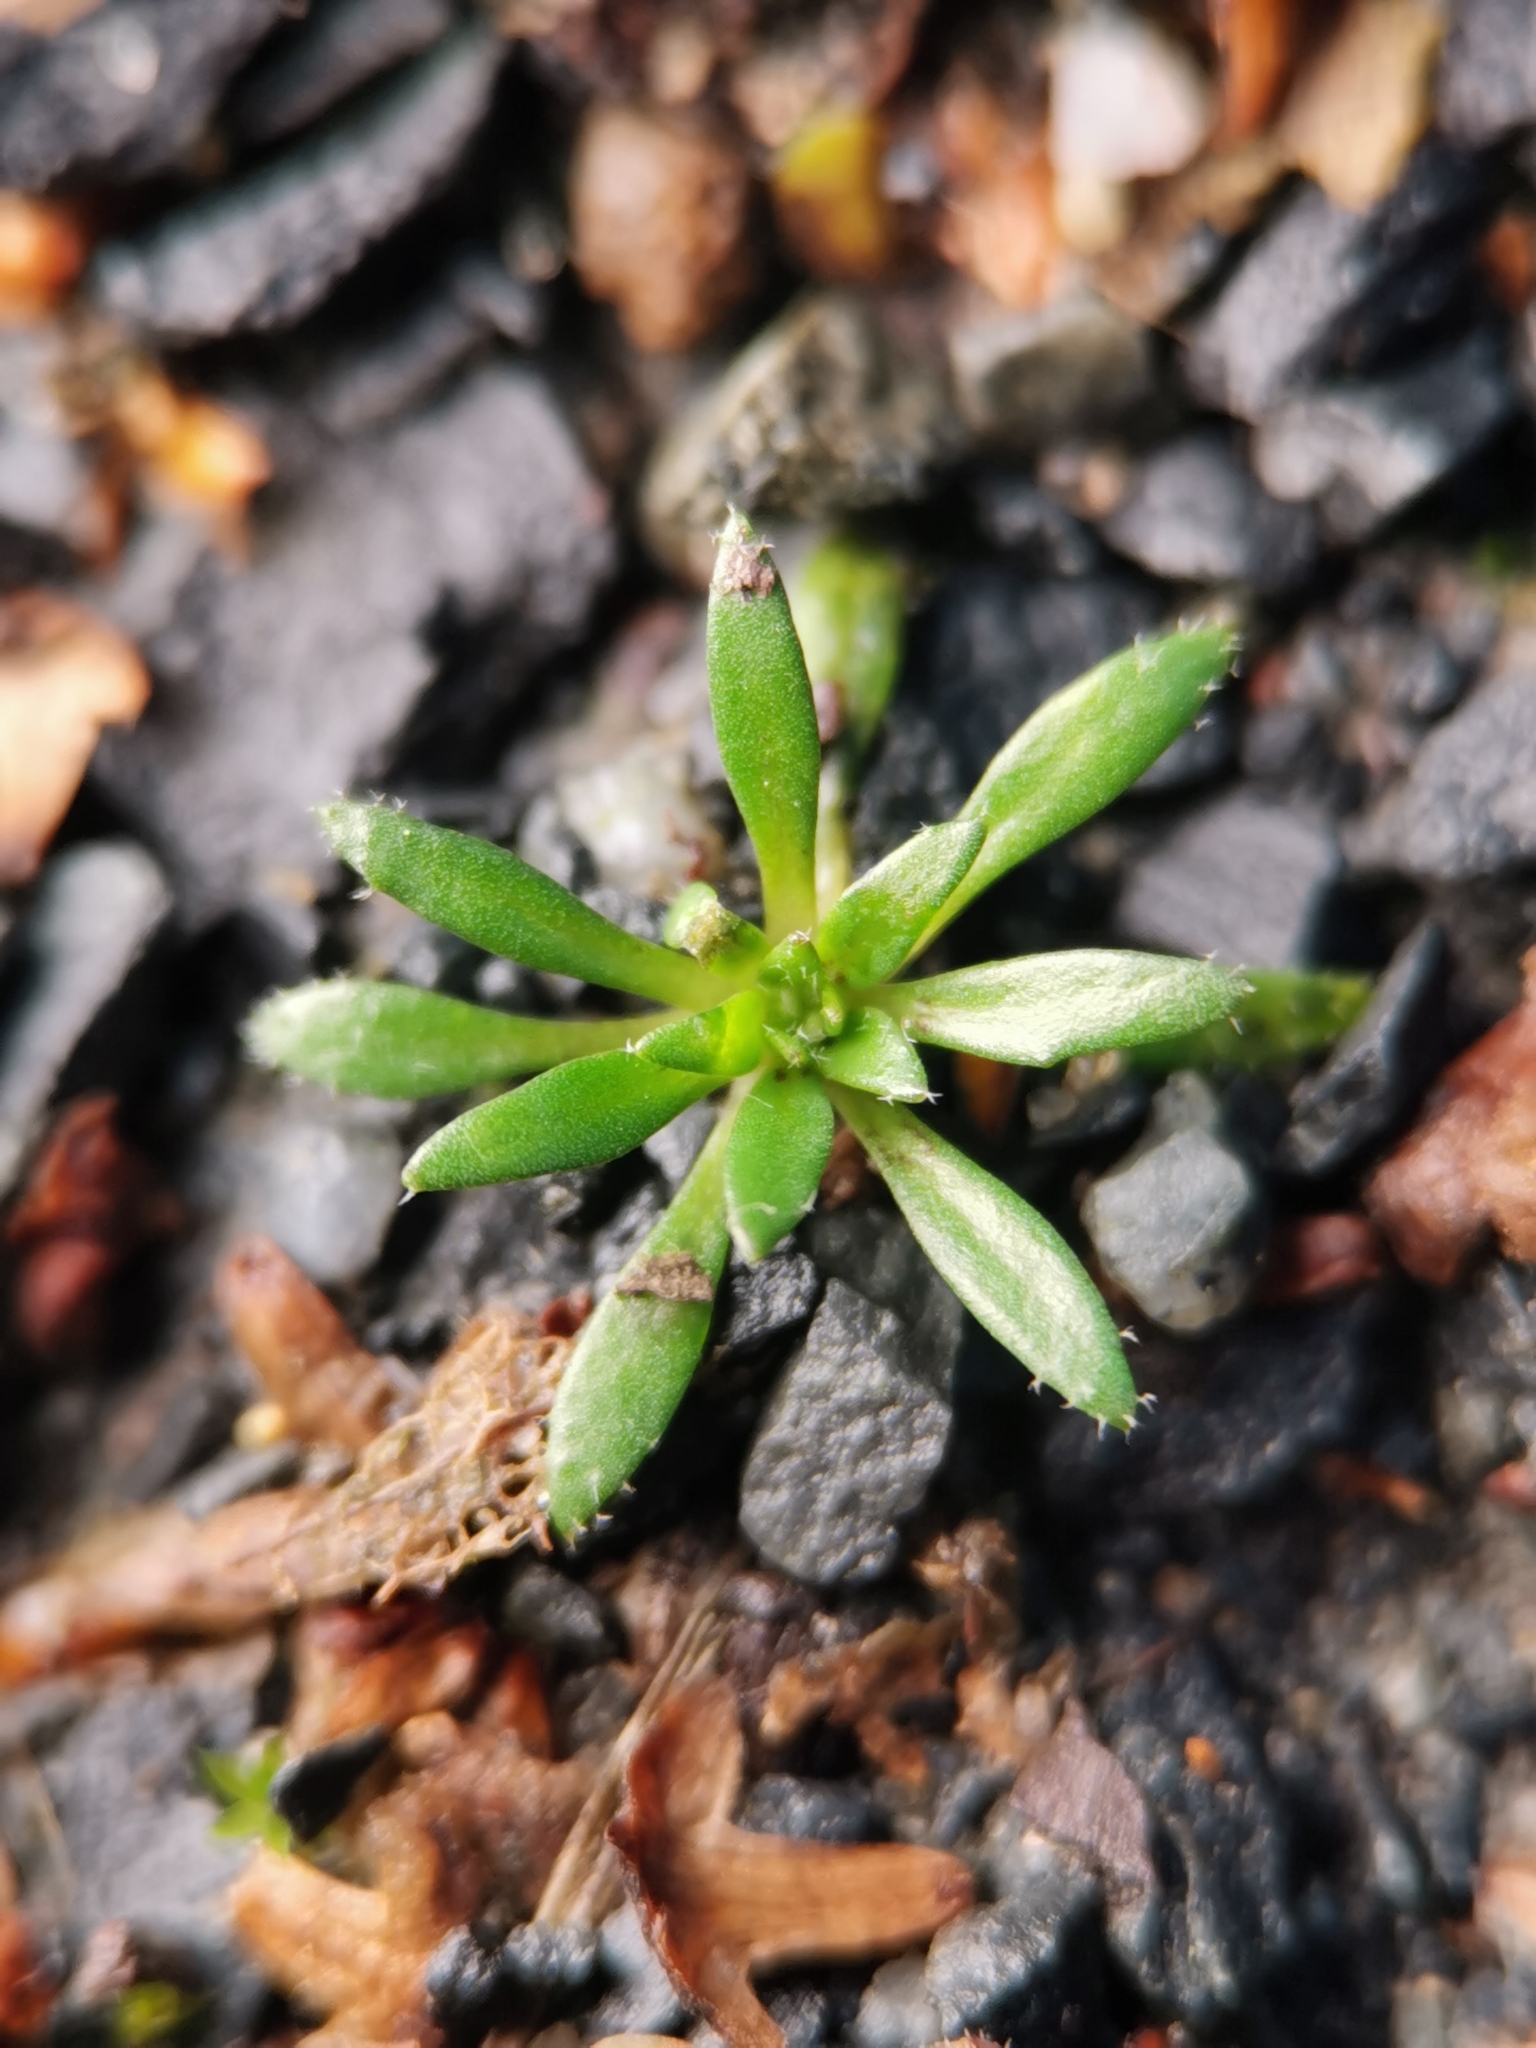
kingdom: Plantae
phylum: Tracheophyta
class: Magnoliopsida
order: Brassicales
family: Brassicaceae
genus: Draba
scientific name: Draba verna
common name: Spring draba
